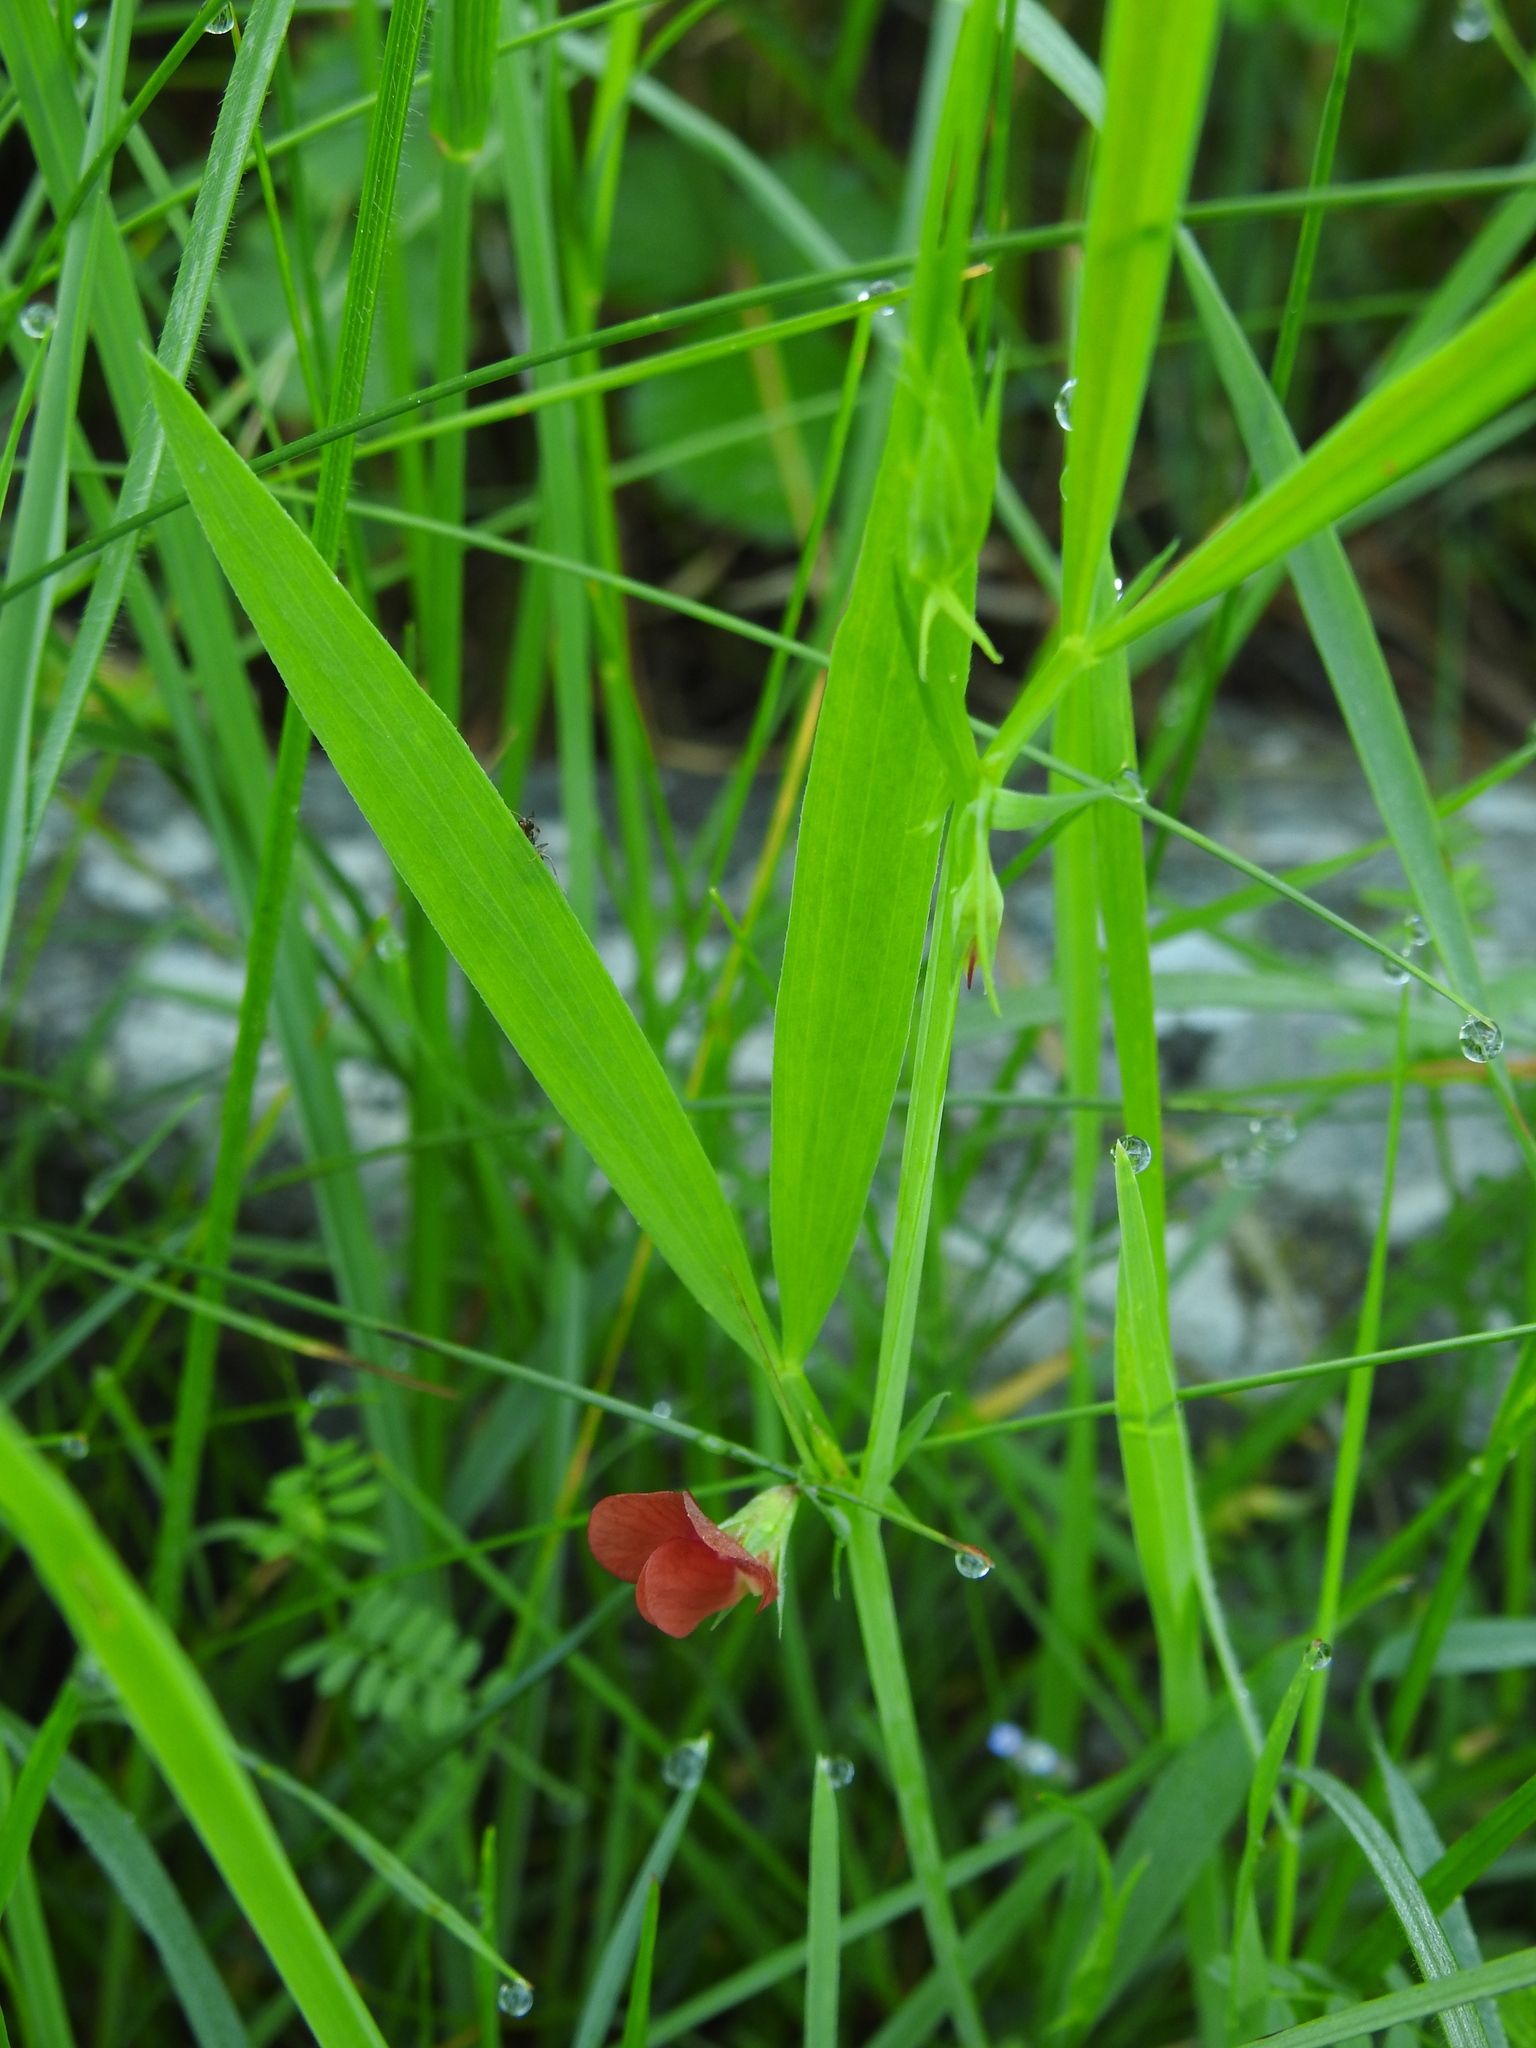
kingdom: Plantae
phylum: Tracheophyta
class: Magnoliopsida
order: Fabales
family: Fabaceae
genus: Lathyrus
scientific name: Lathyrus sphaericus
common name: Grass pea
